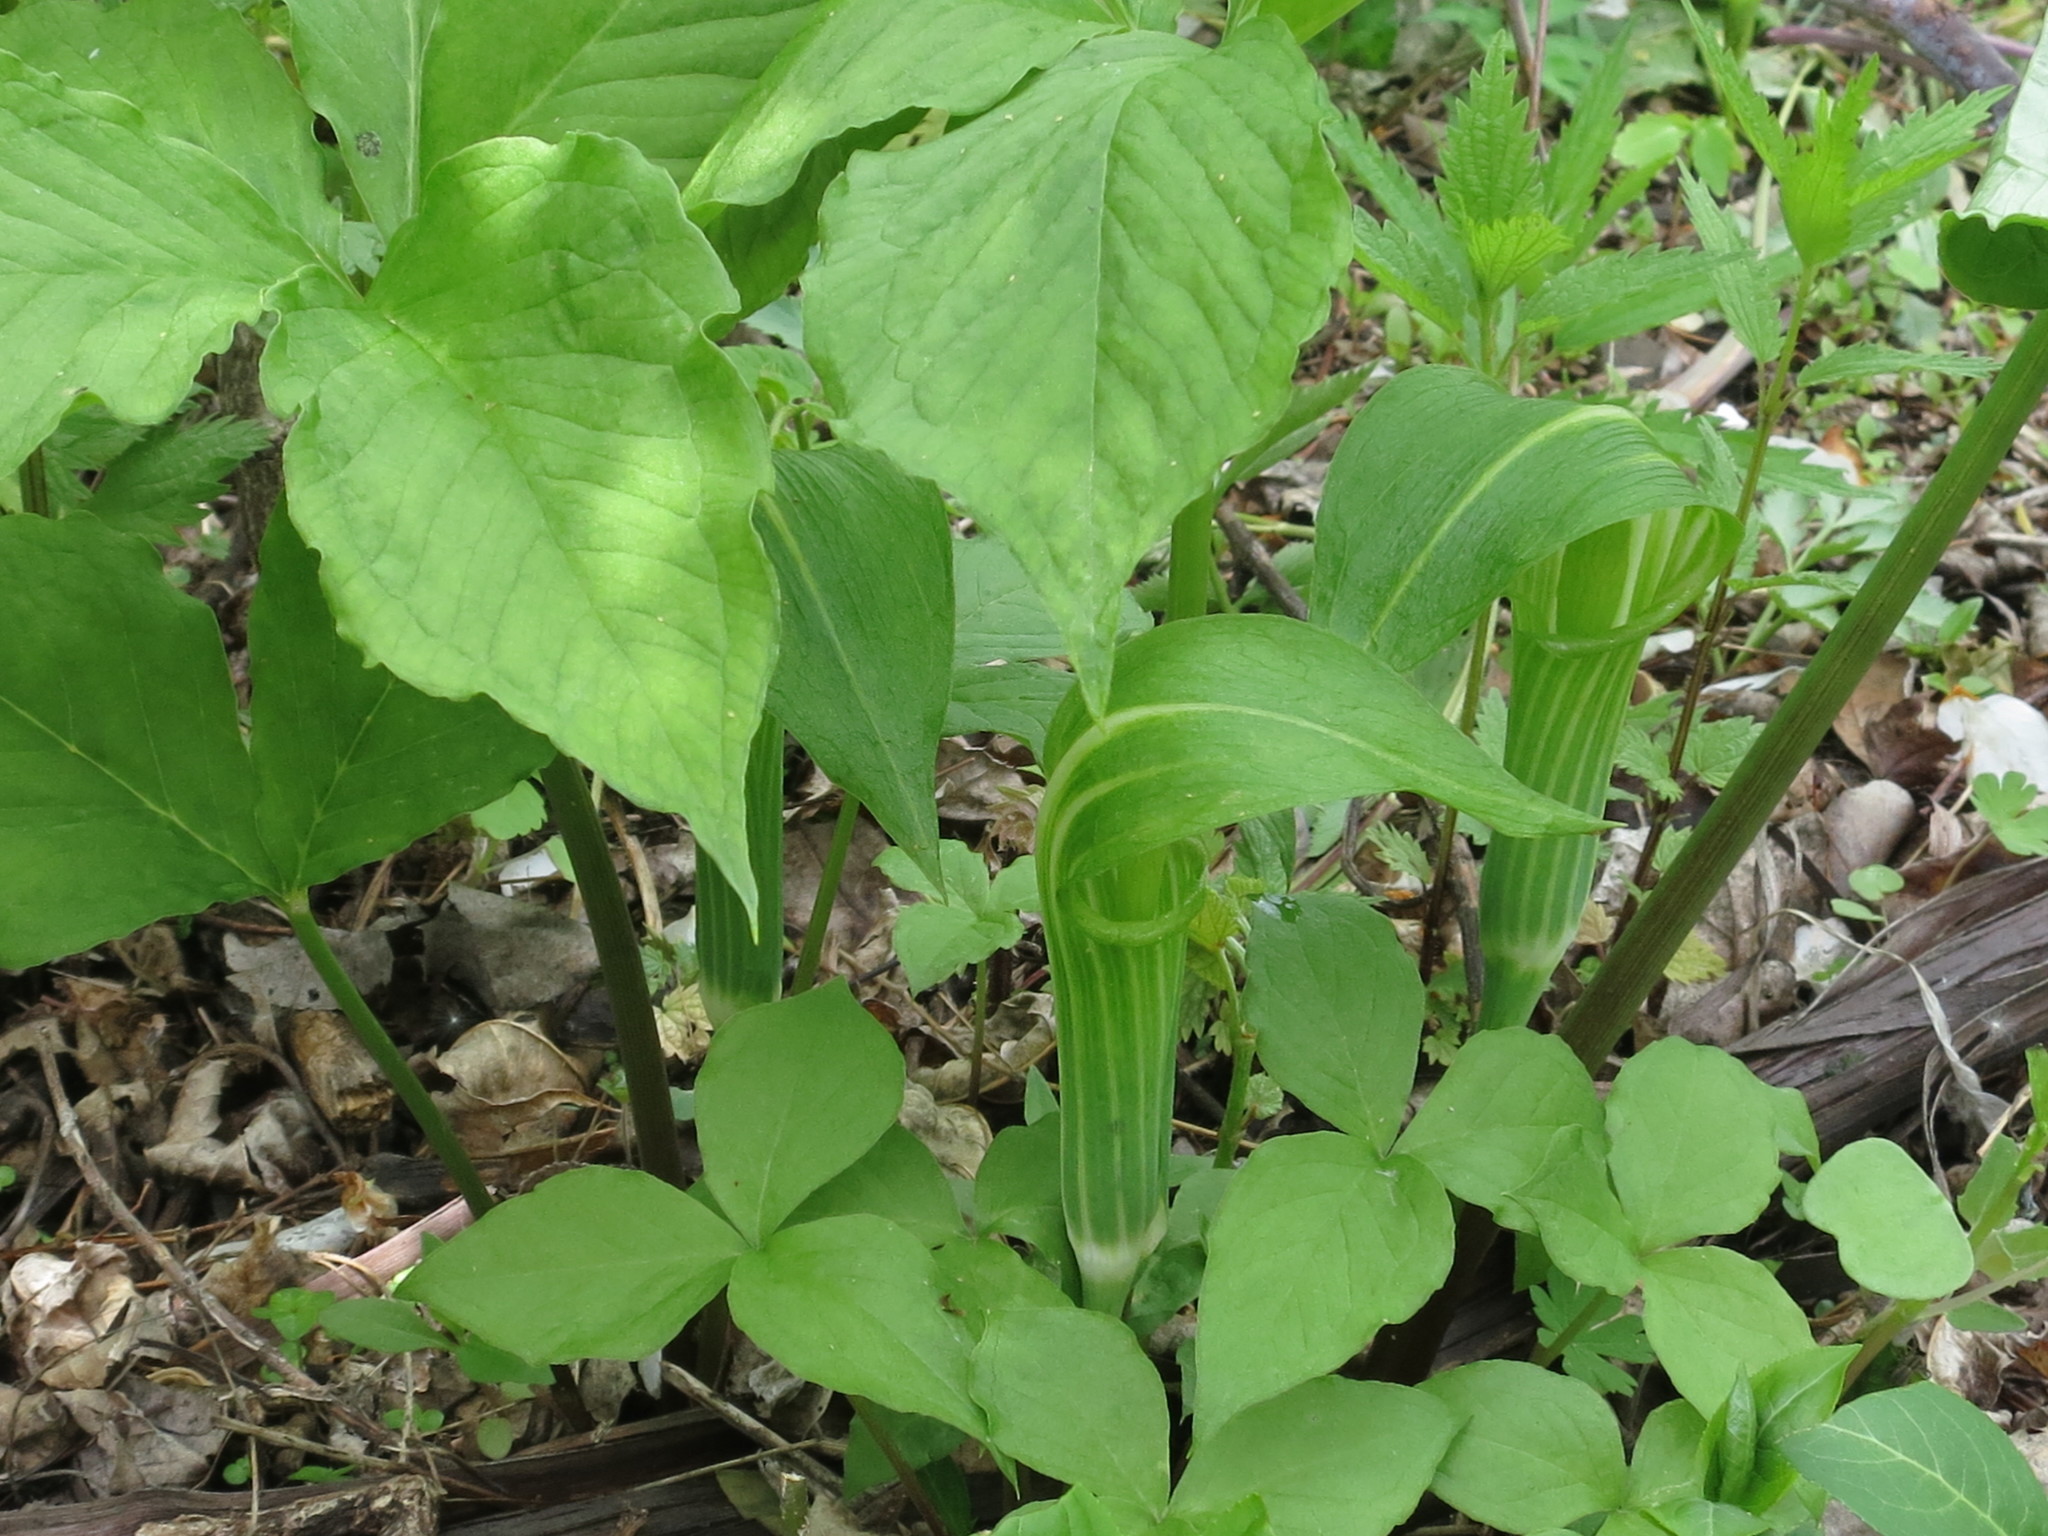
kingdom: Plantae
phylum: Tracheophyta
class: Liliopsida
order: Alismatales
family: Araceae
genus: Arisaema
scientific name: Arisaema amurense
